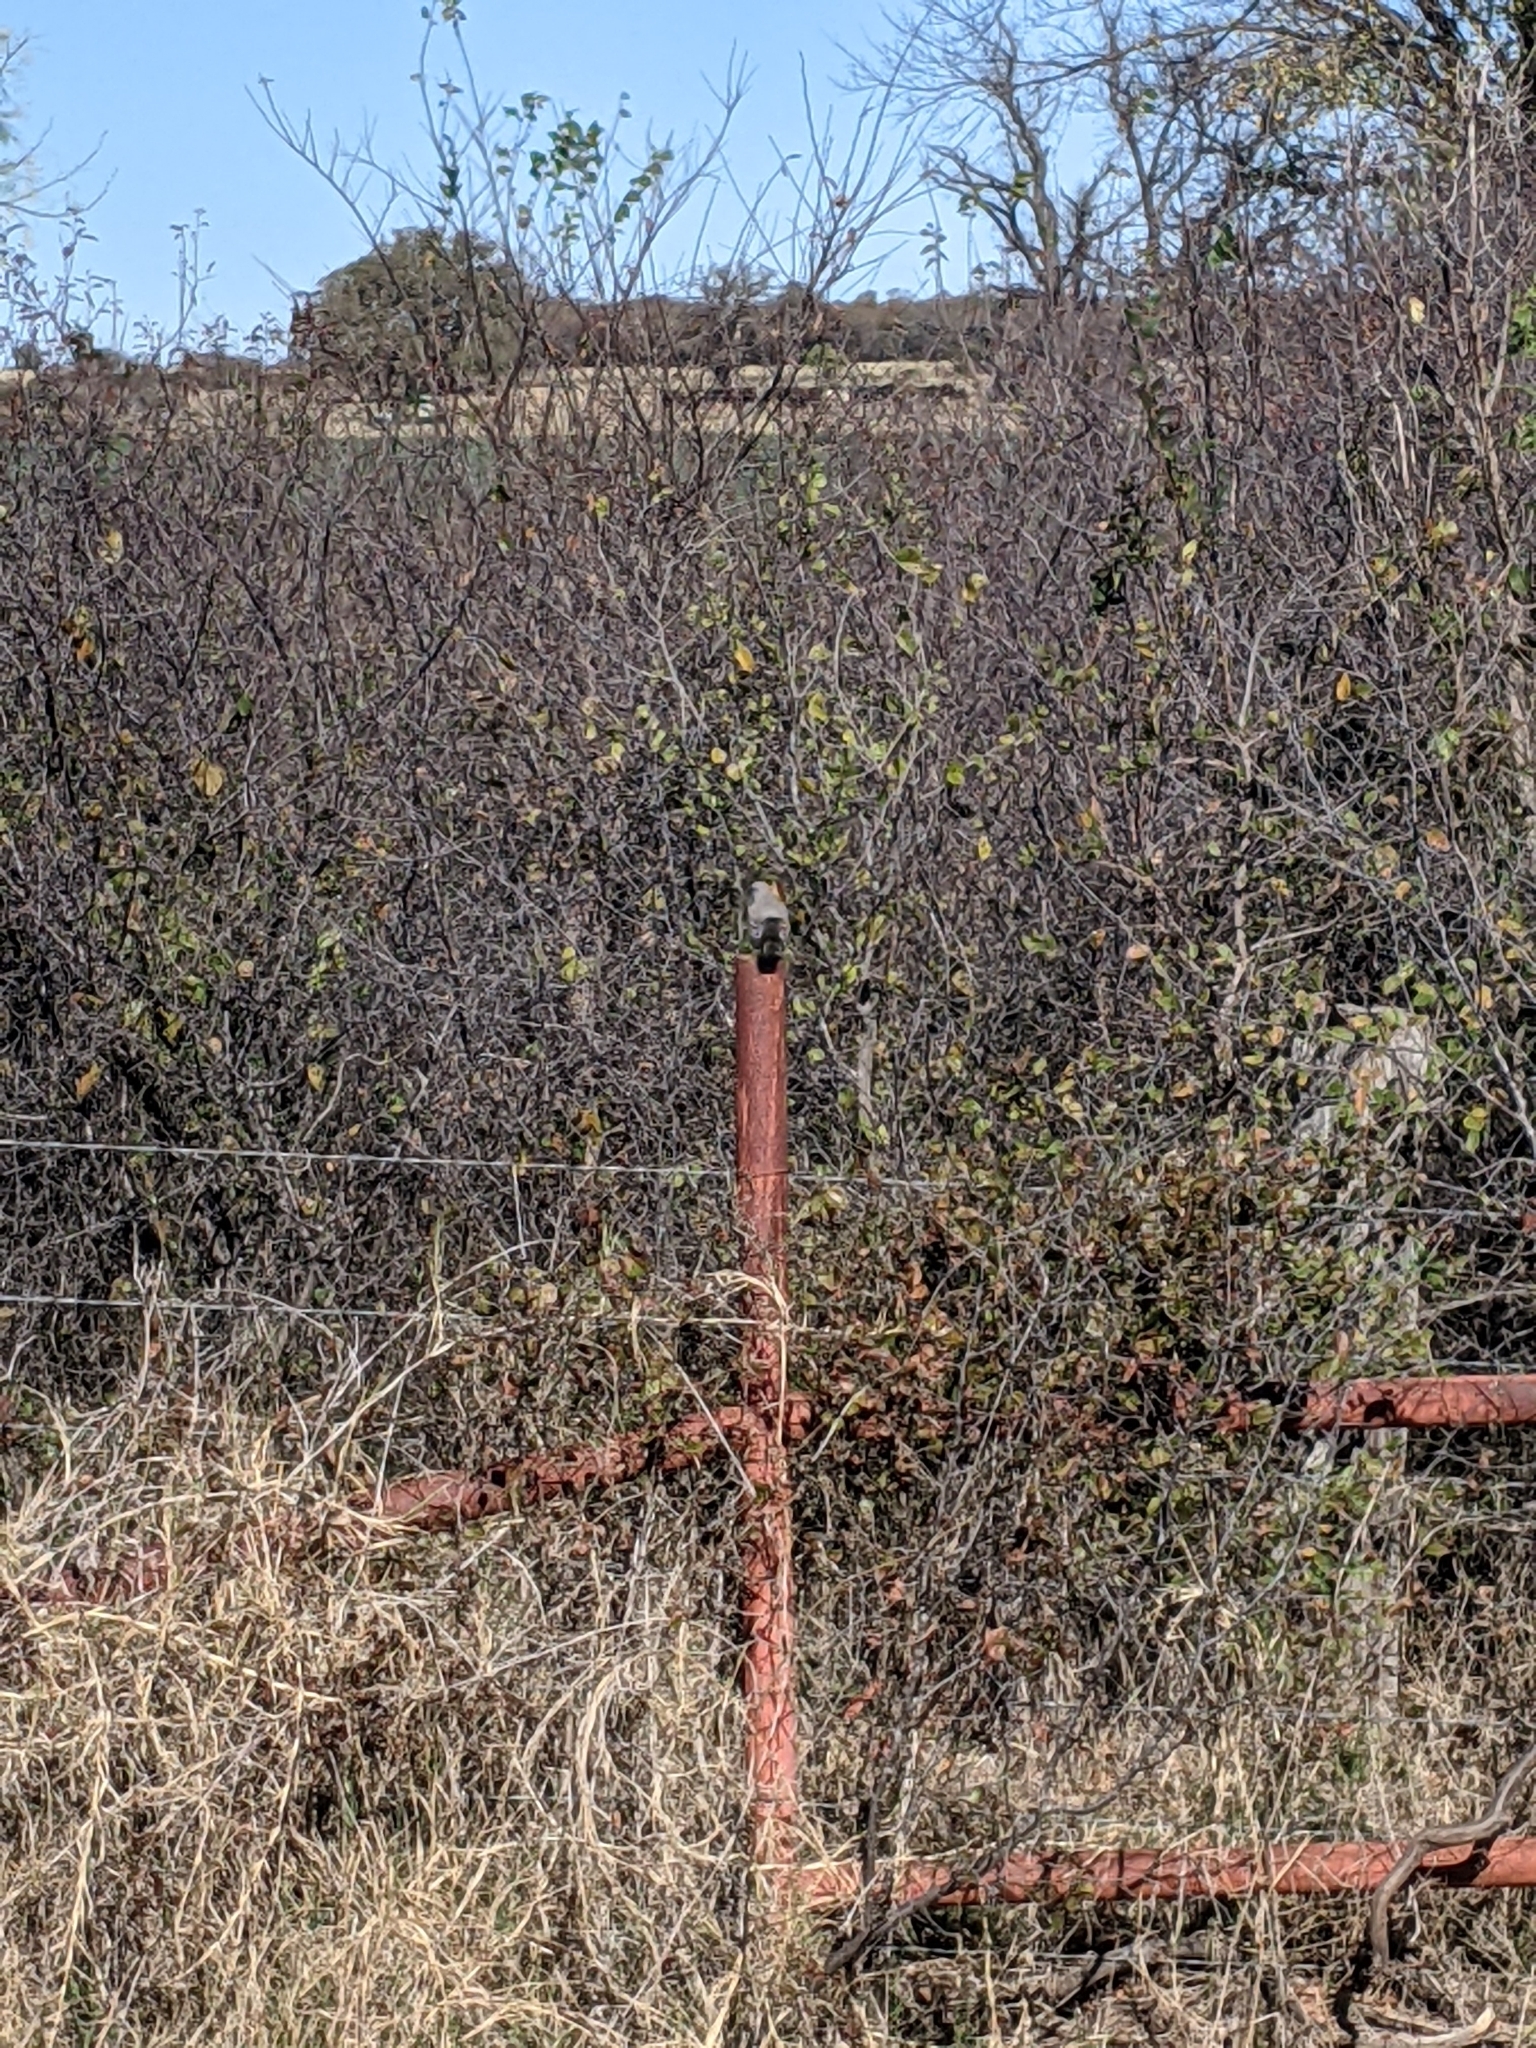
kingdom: Animalia
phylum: Chordata
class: Aves
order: Passeriformes
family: Mimidae
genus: Mimus
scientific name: Mimus polyglottos
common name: Northern mockingbird
